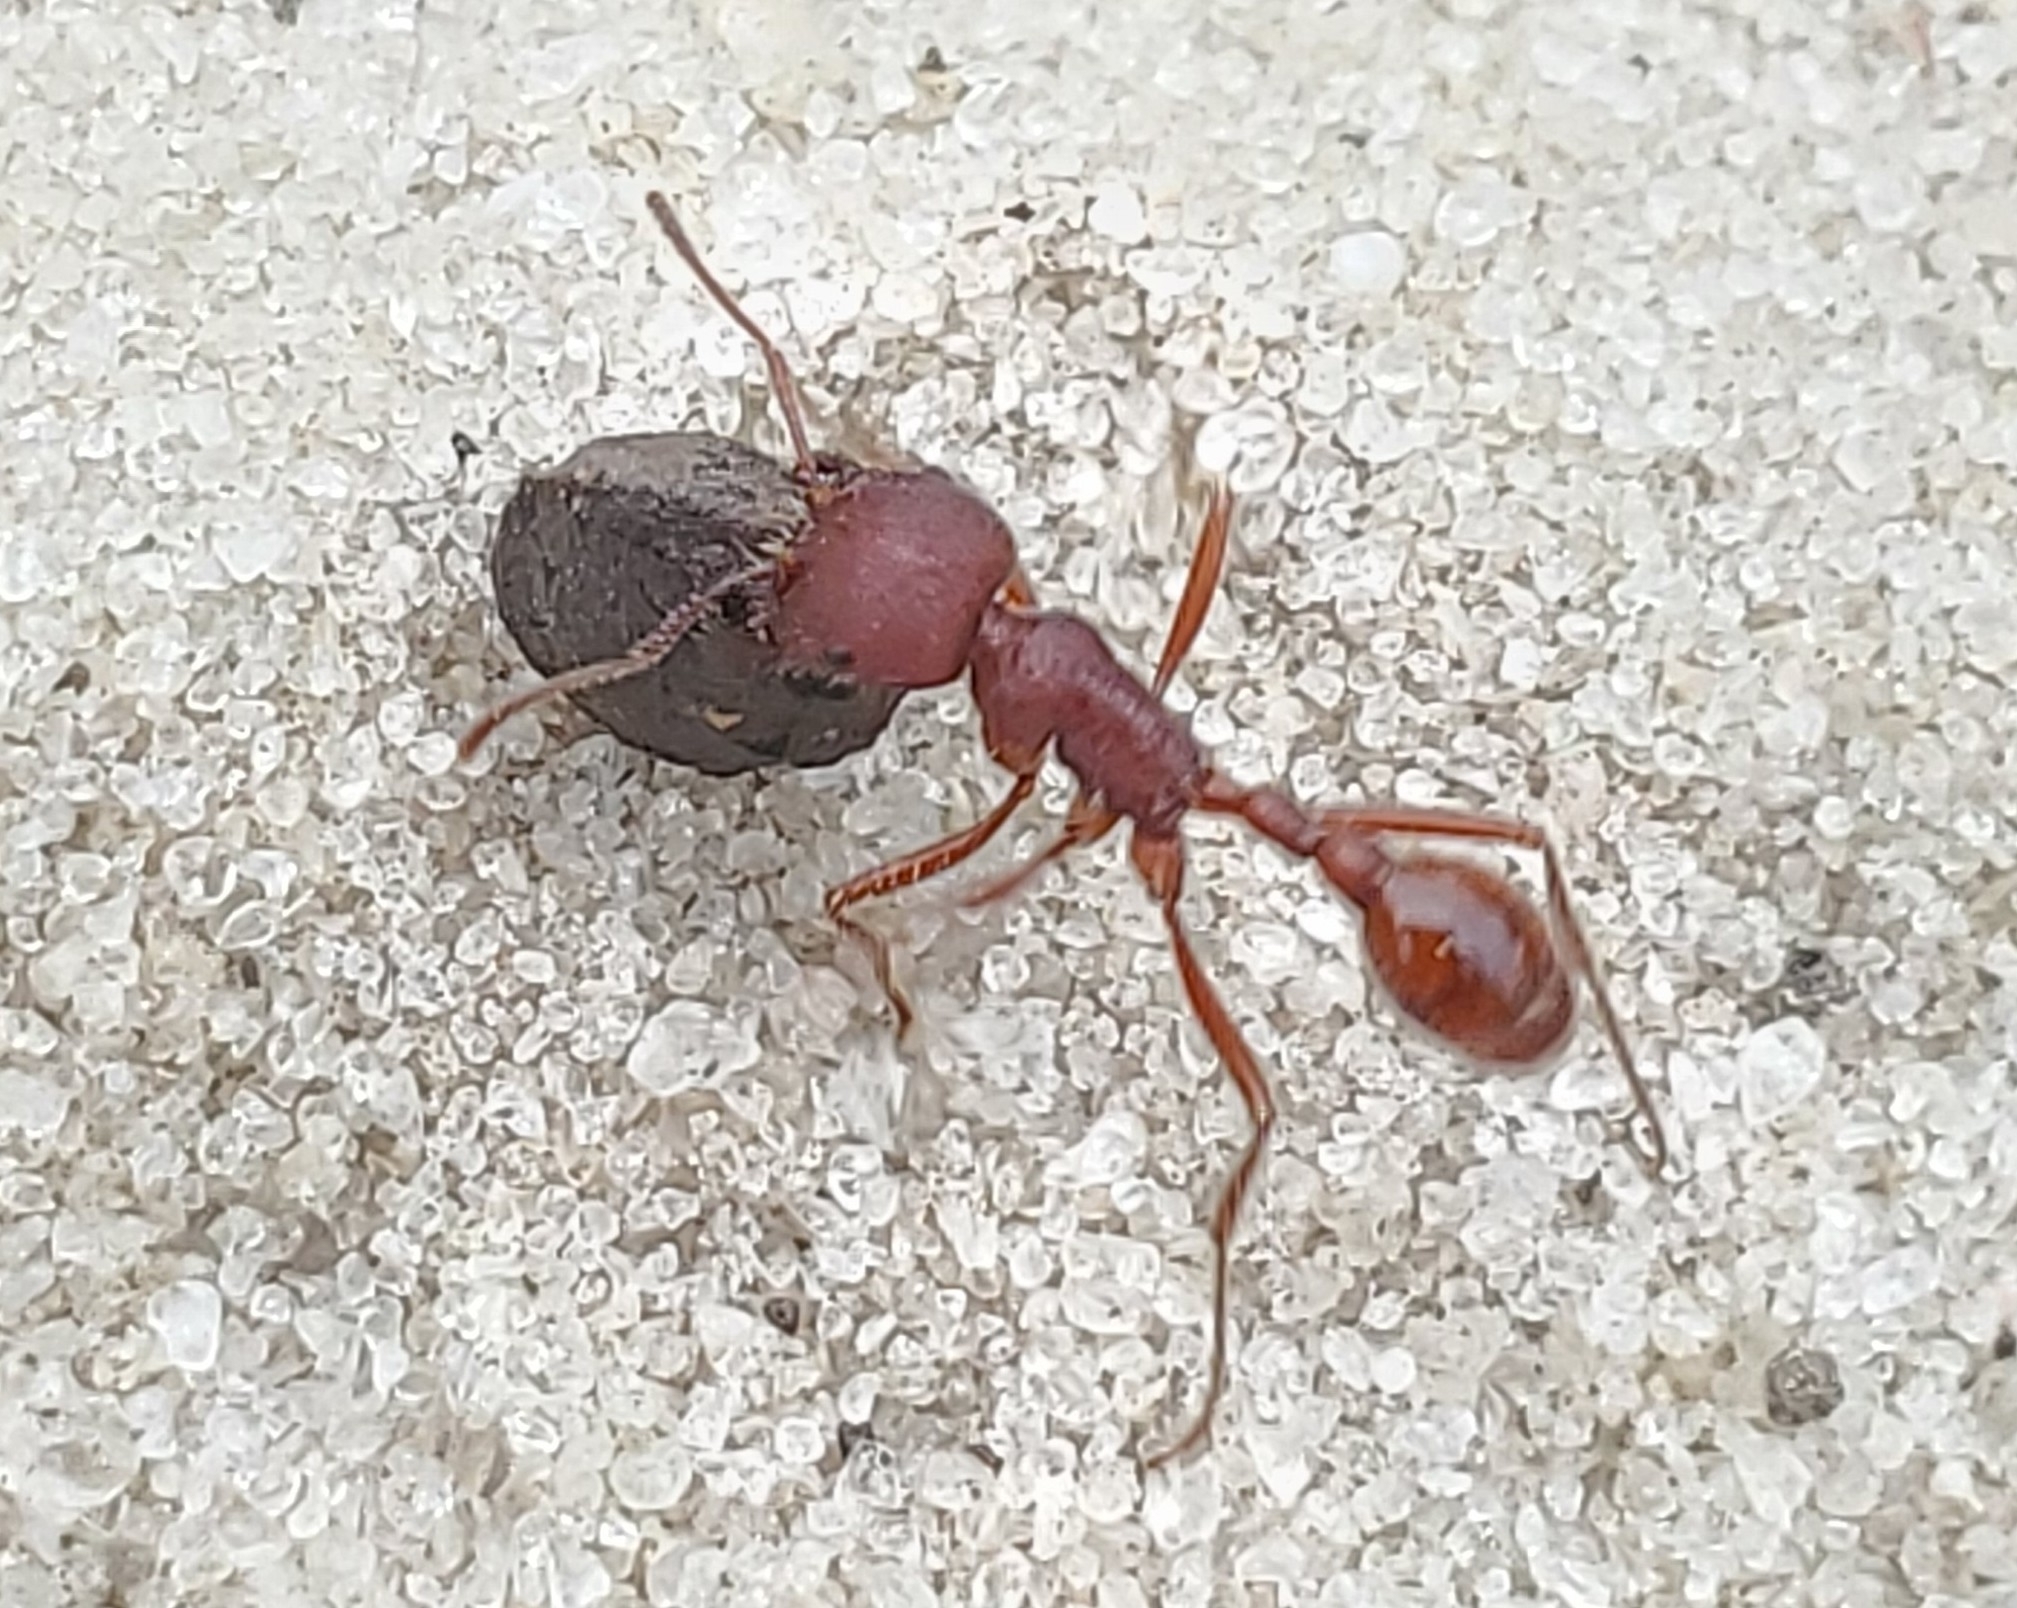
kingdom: Animalia
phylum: Arthropoda
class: Insecta
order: Hymenoptera
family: Formicidae
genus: Pogonomyrmex
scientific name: Pogonomyrmex badius
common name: Florida harvester ant
